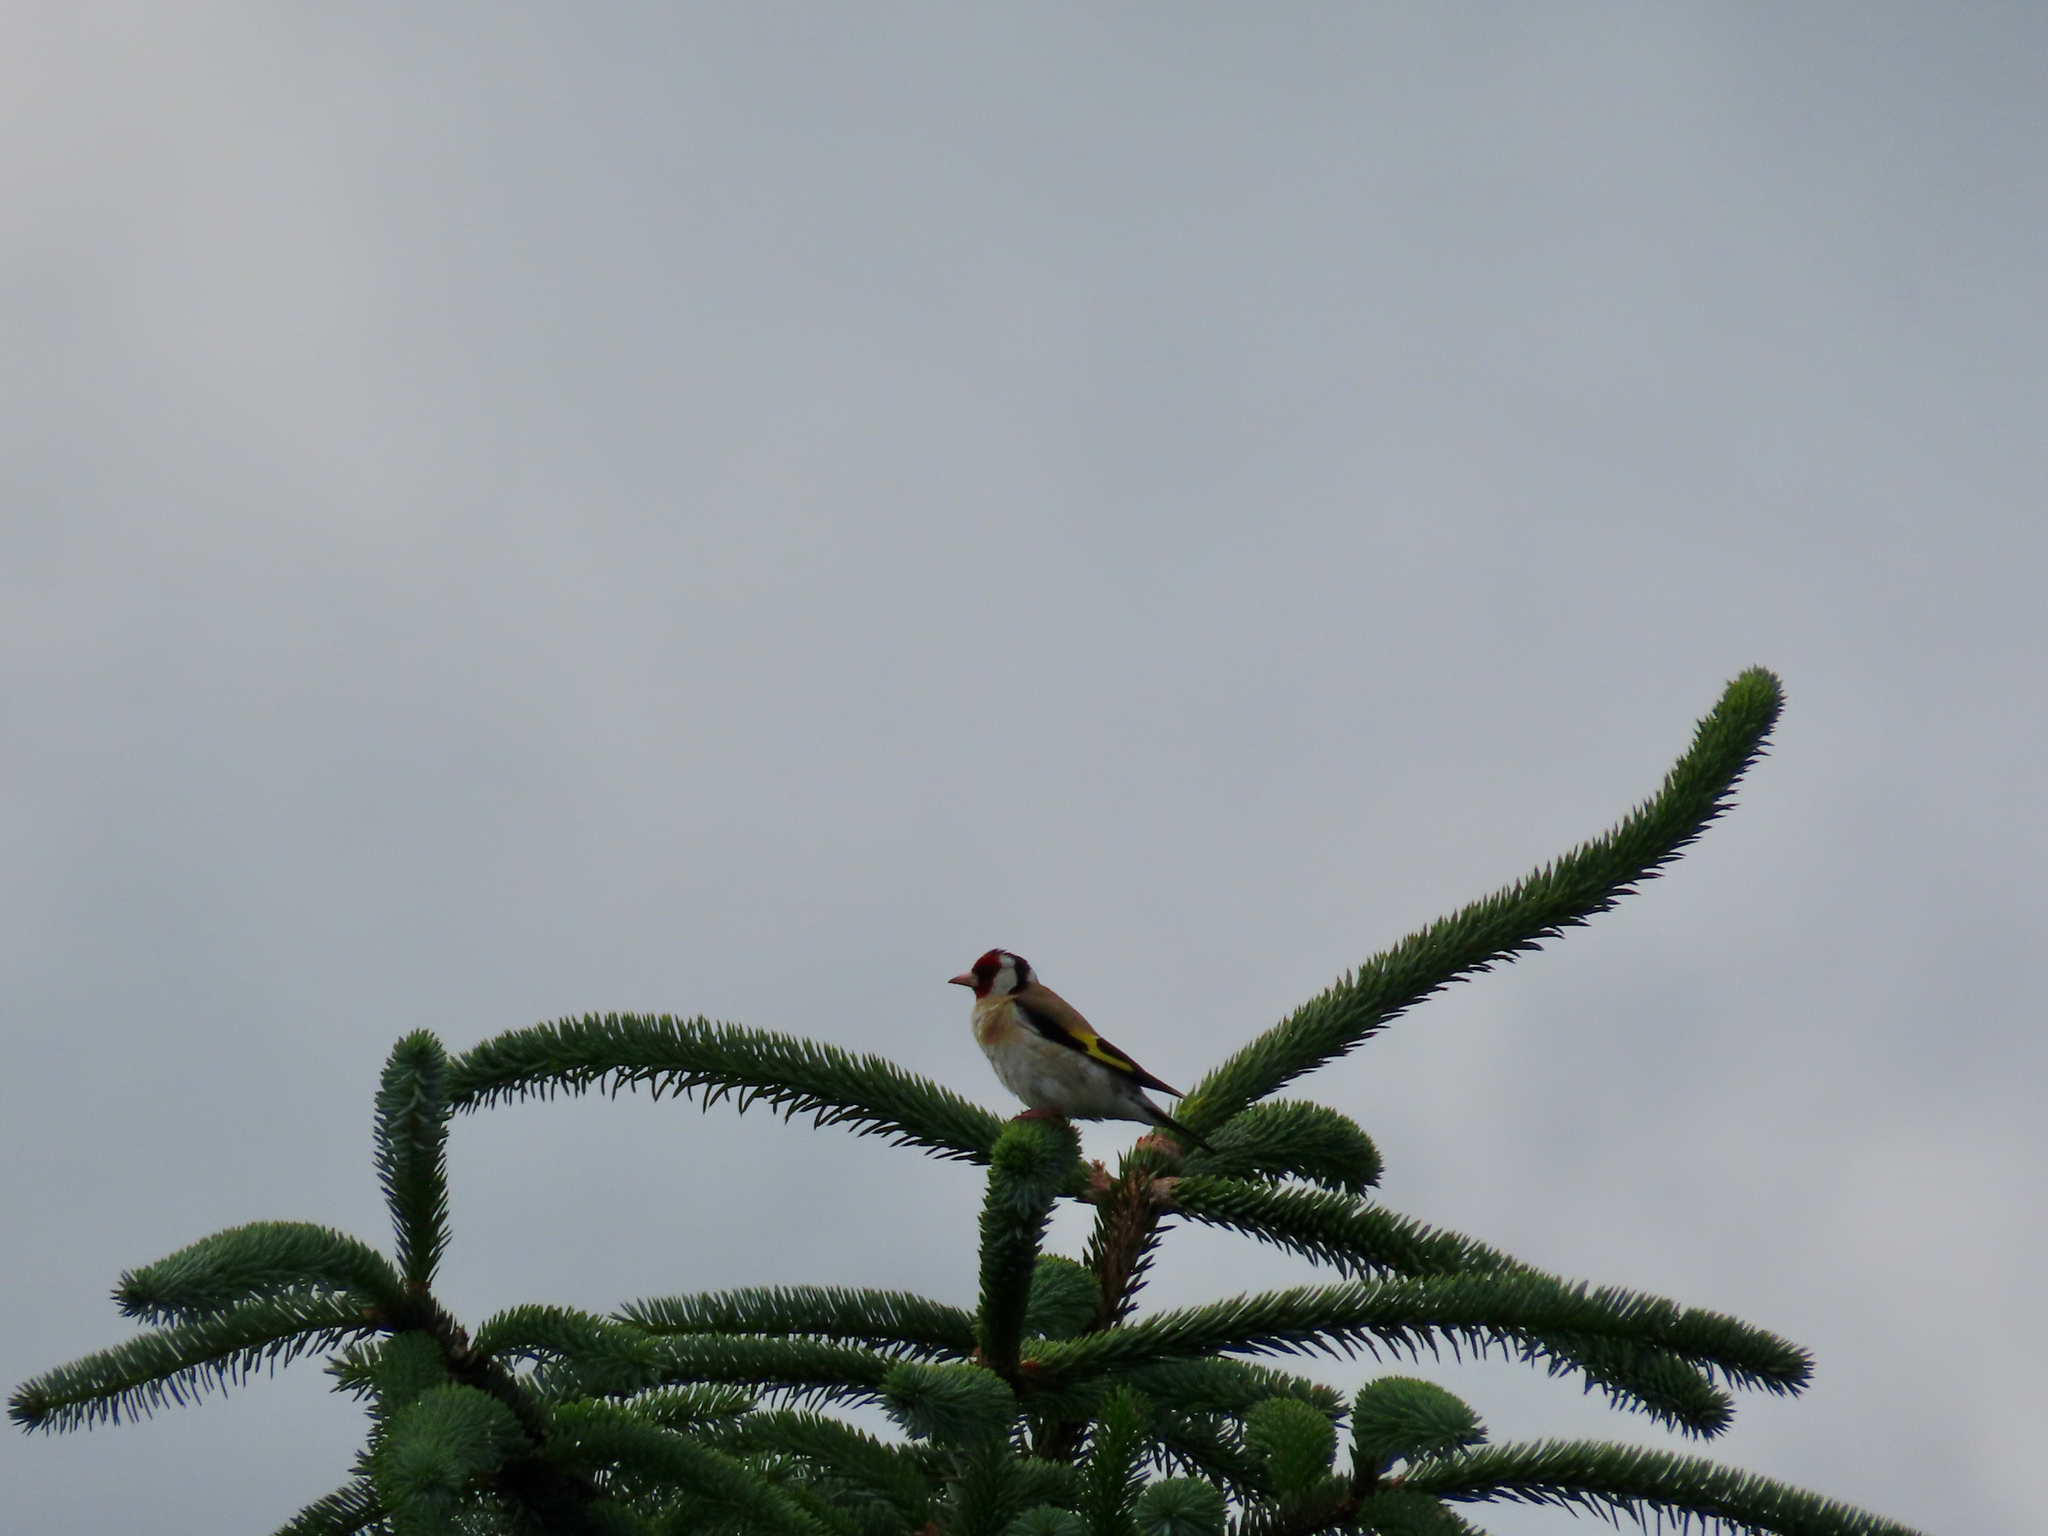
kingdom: Animalia
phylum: Chordata
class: Aves
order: Passeriformes
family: Fringillidae
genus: Carduelis
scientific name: Carduelis carduelis
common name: European goldfinch
